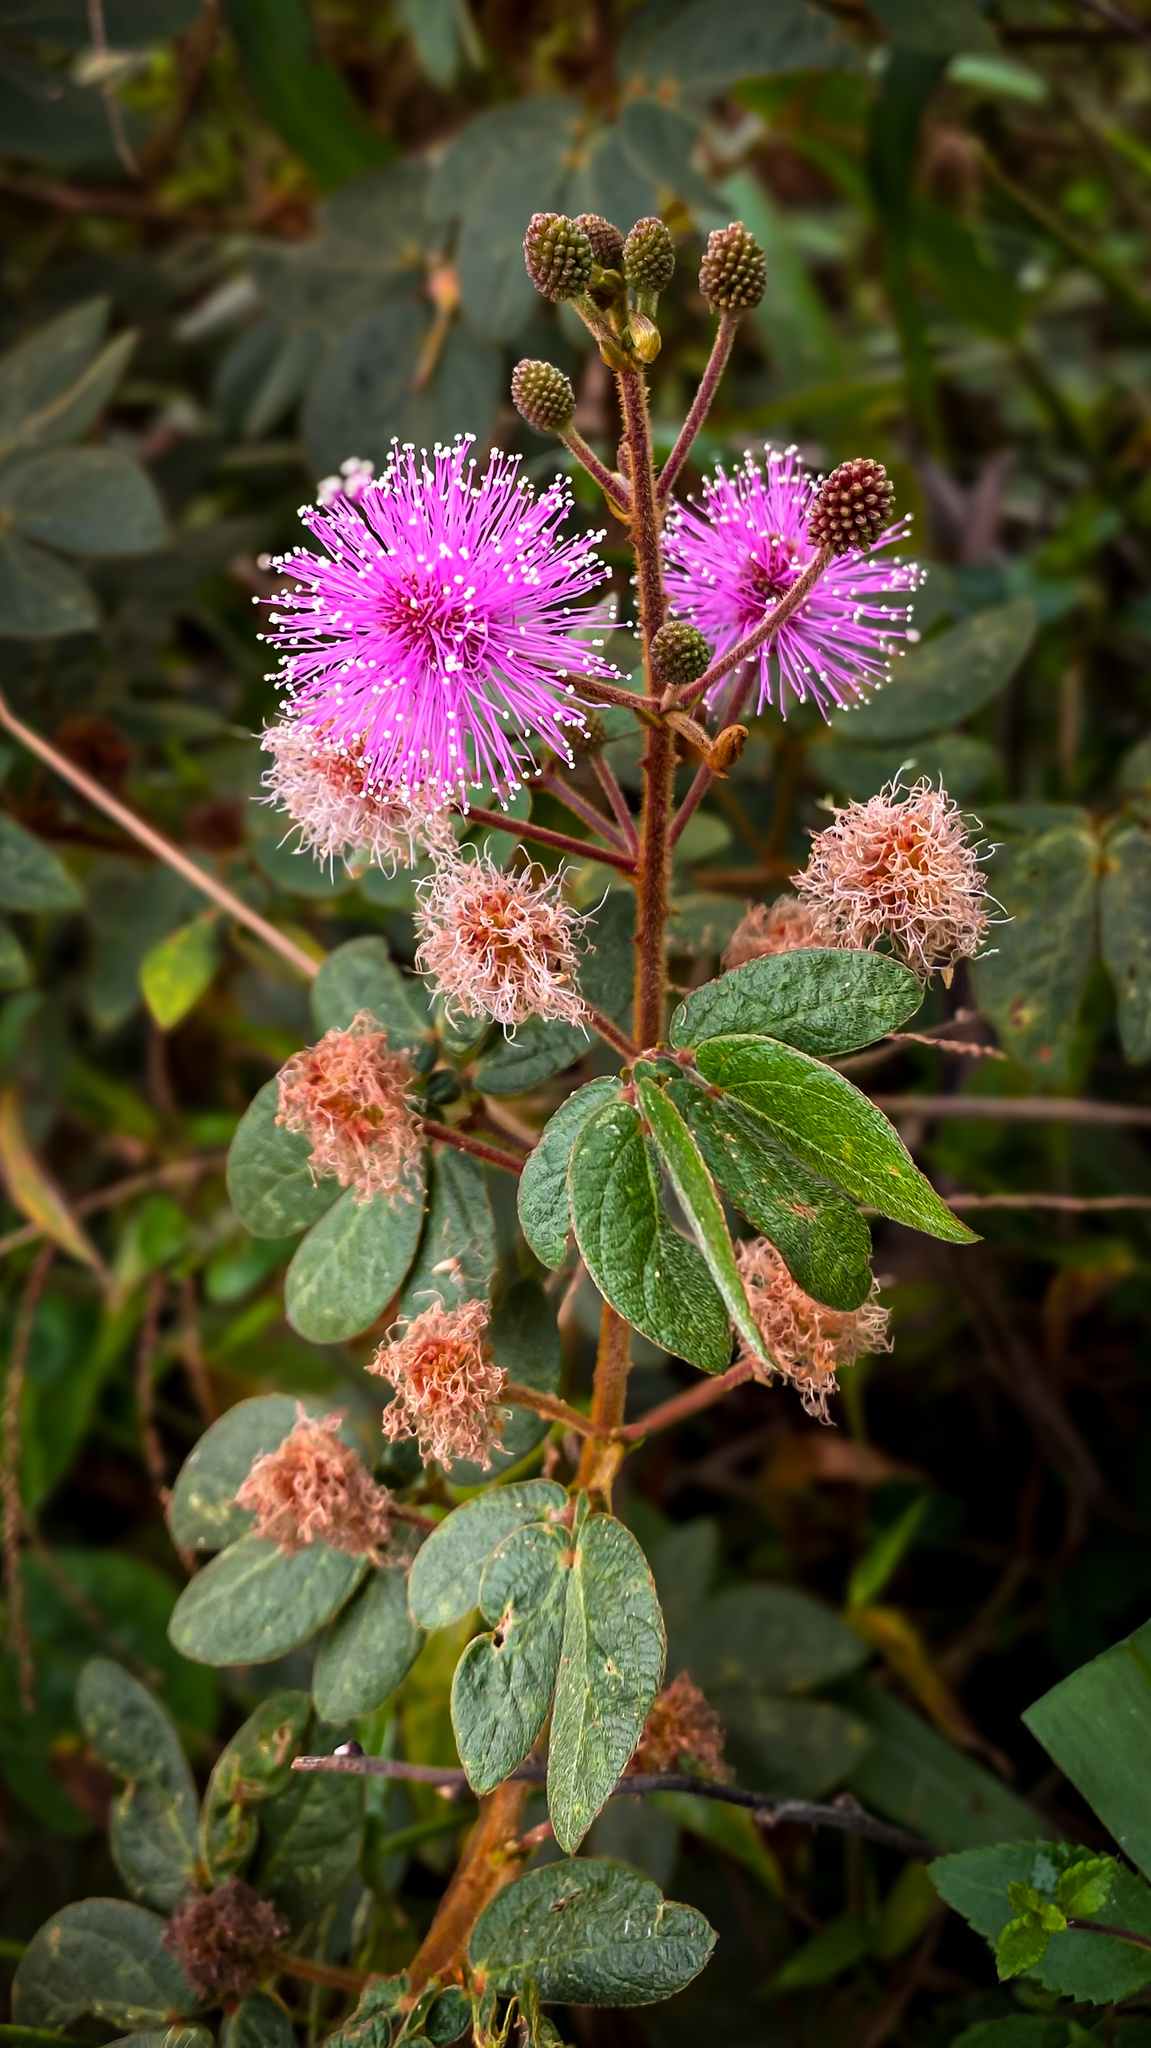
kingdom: Plantae
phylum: Tracheophyta
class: Magnoliopsida
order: Fabales
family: Fabaceae
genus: Mimosa
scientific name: Mimosa albida
